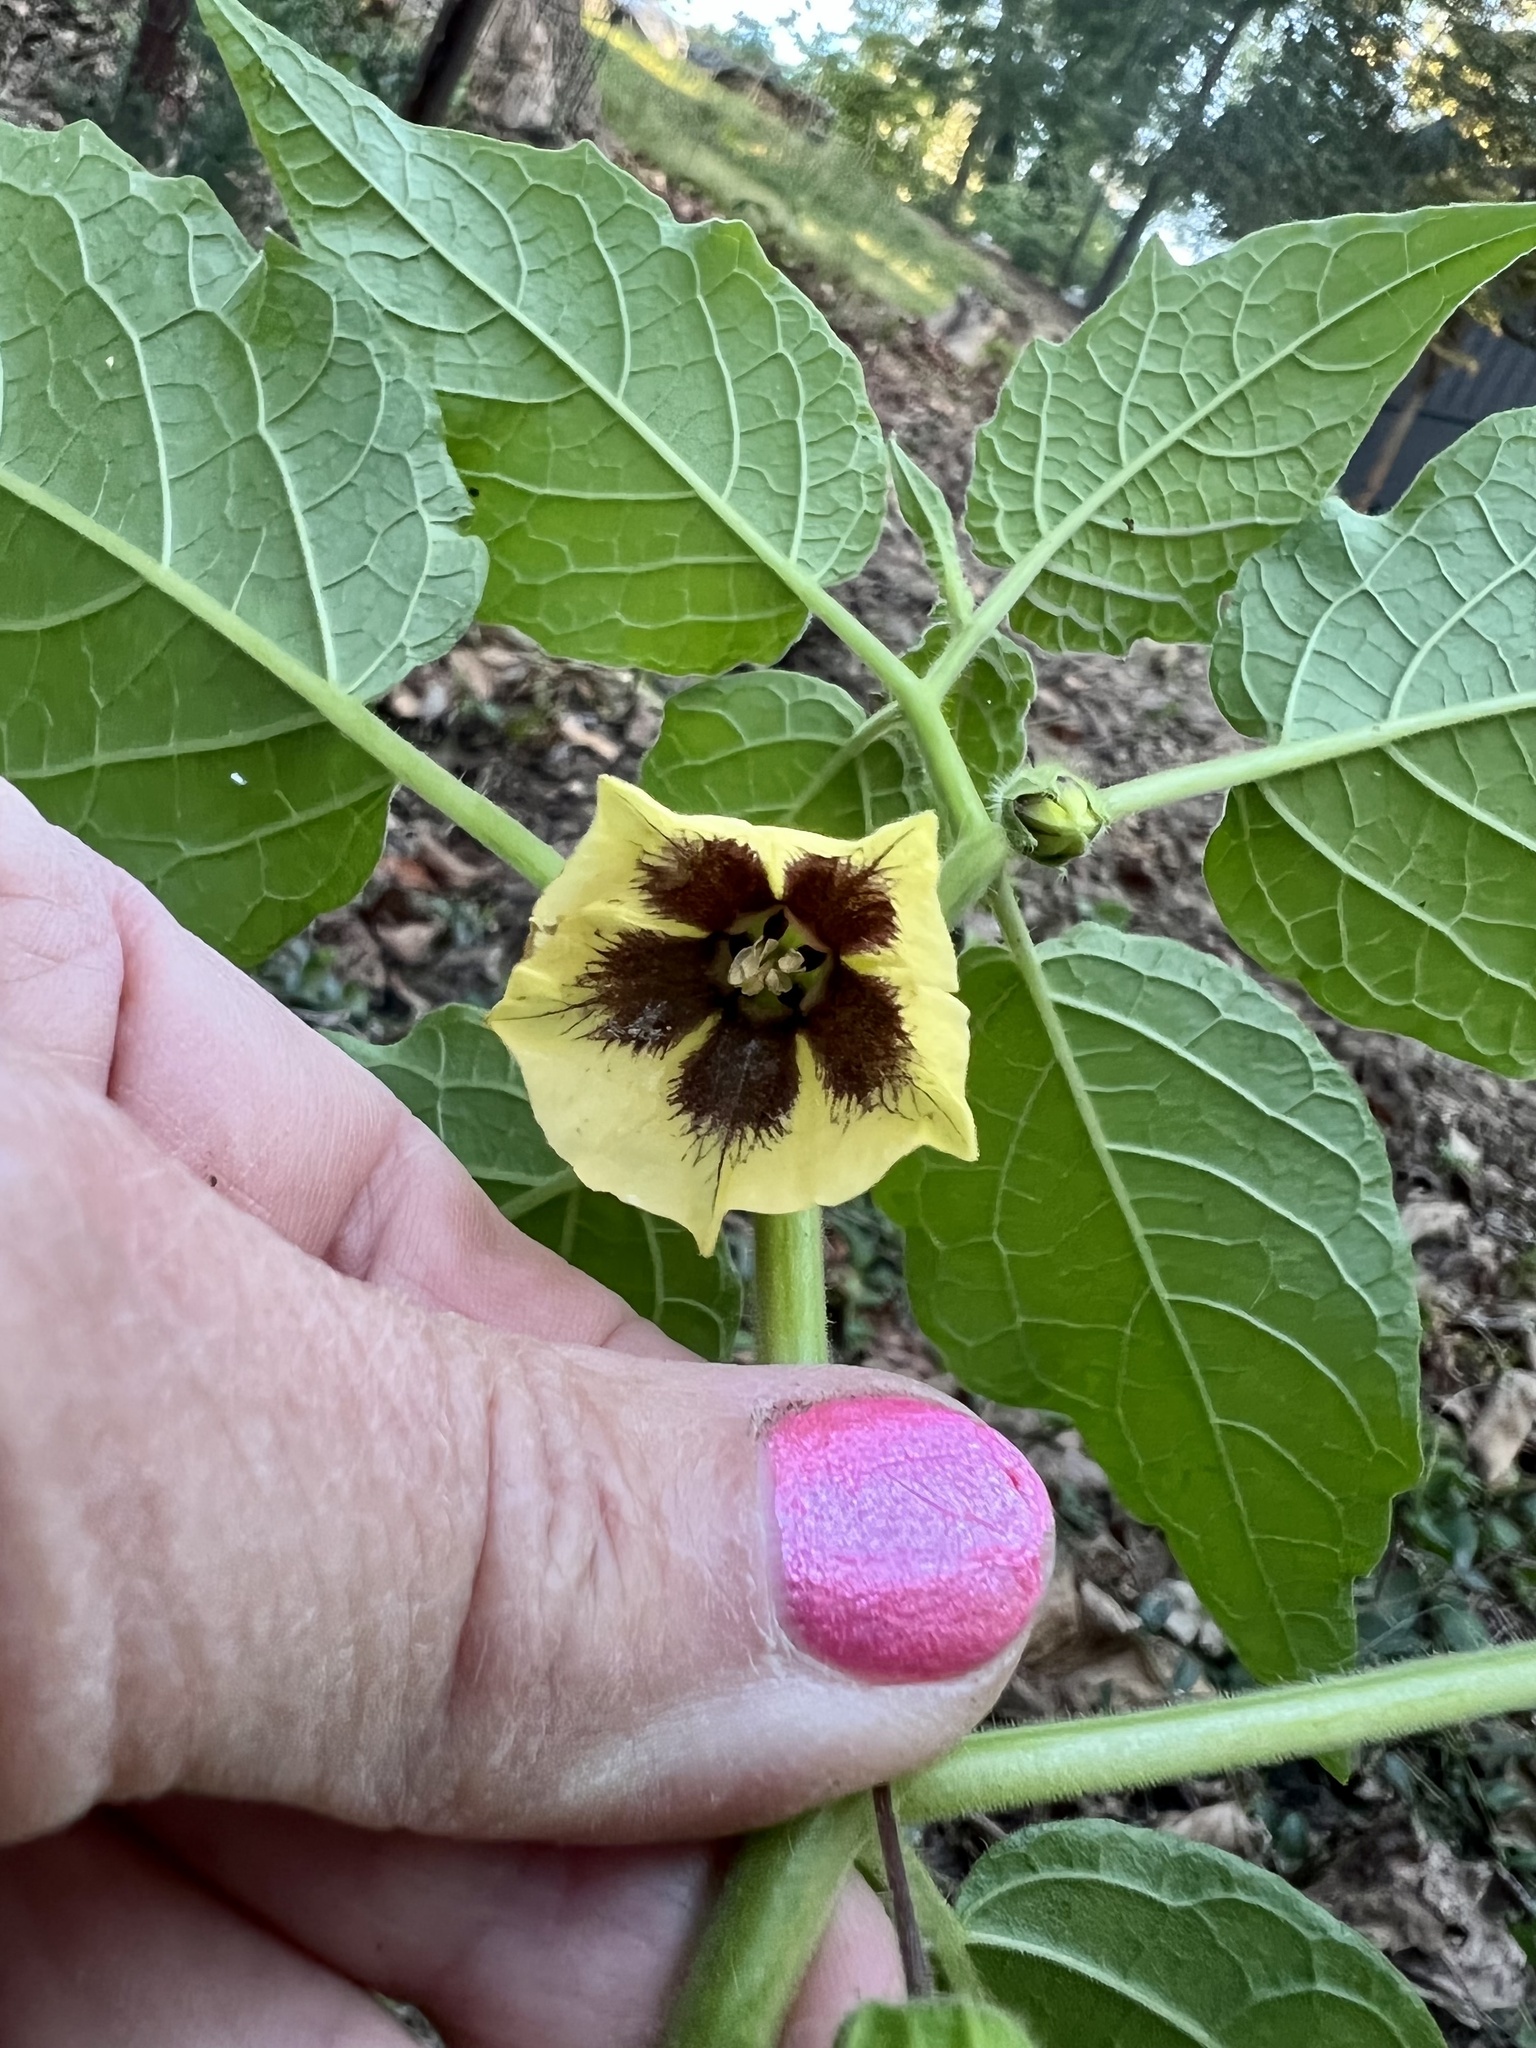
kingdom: Plantae
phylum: Tracheophyta
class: Magnoliopsida
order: Solanales
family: Solanaceae
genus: Physalis
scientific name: Physalis heterophylla
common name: Clammy ground-cherry
